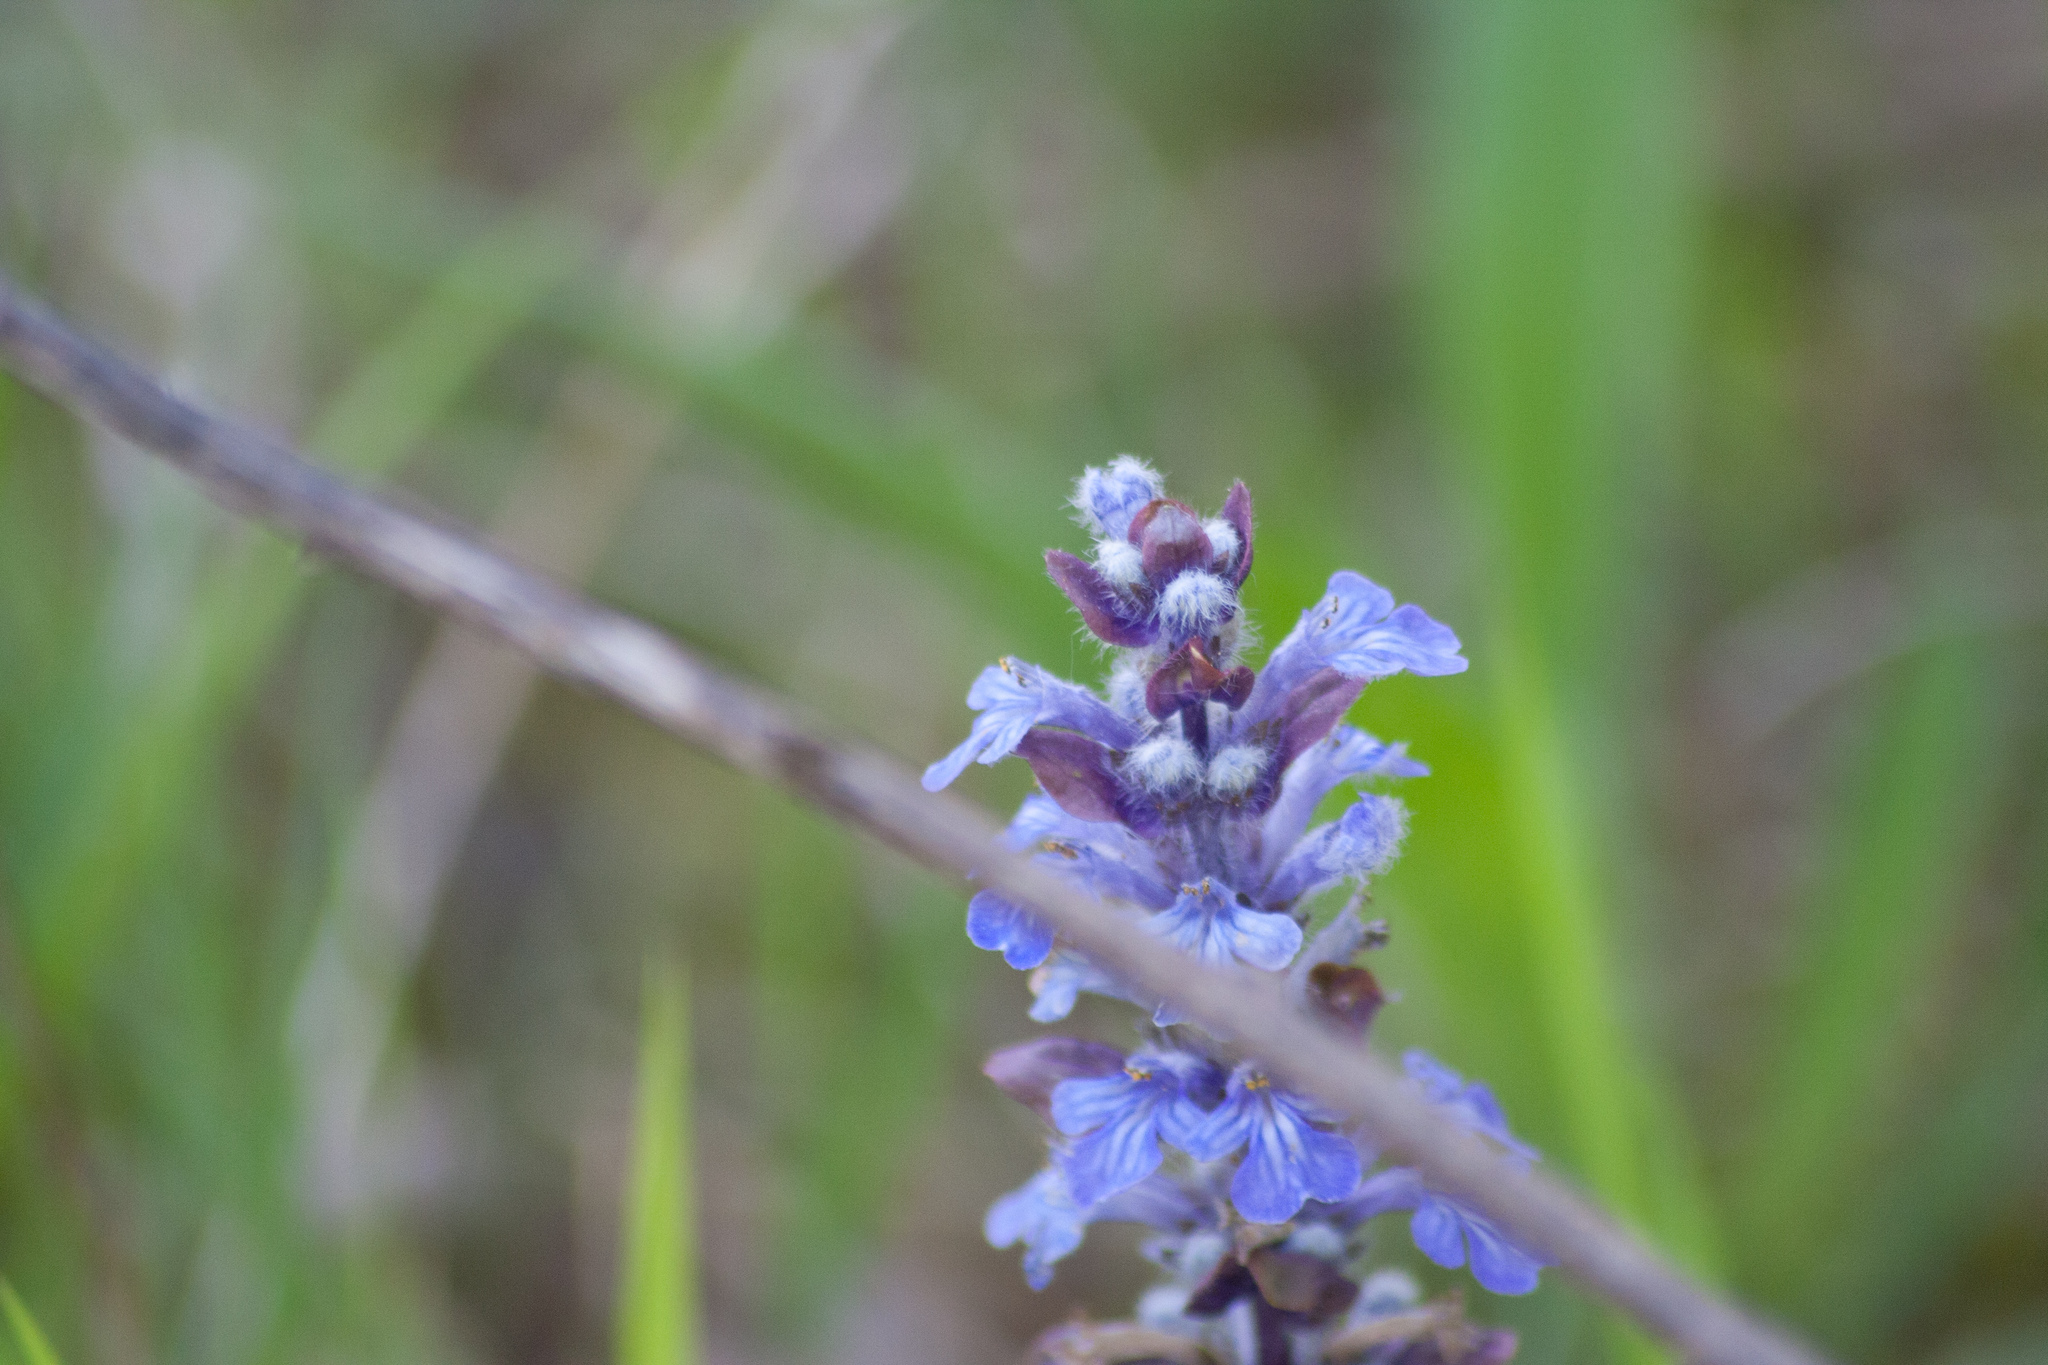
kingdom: Plantae
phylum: Tracheophyta
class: Magnoliopsida
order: Lamiales
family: Lamiaceae
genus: Ajuga
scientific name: Ajuga reptans
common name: Bugle
